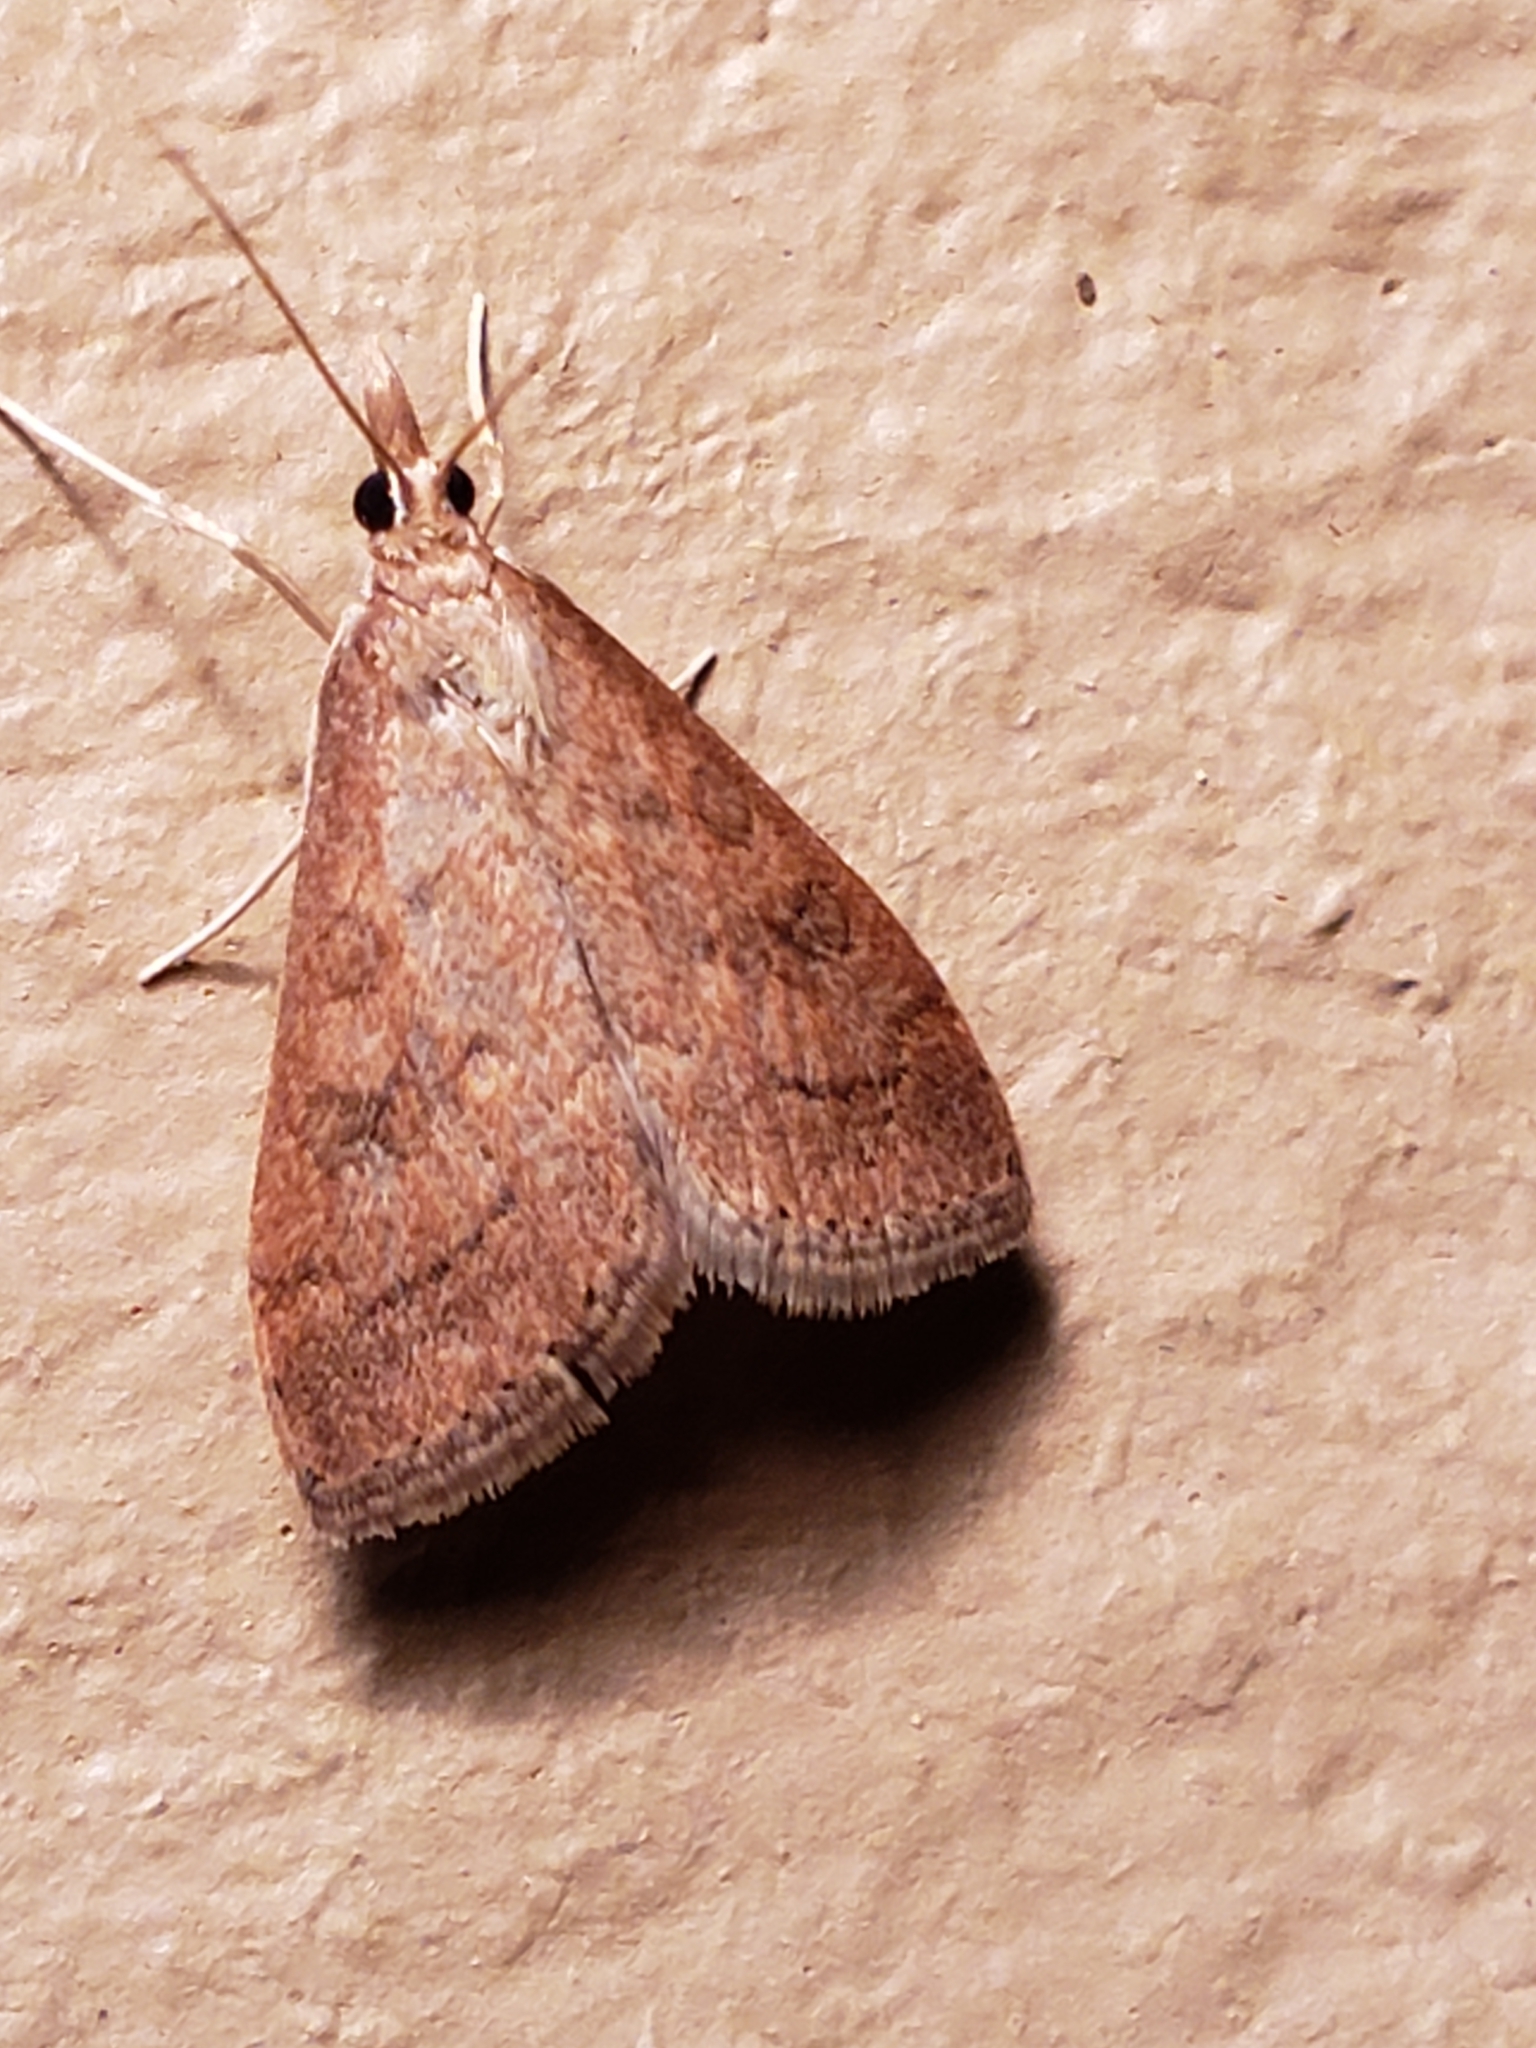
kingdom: Animalia
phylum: Arthropoda
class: Insecta
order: Lepidoptera
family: Crambidae
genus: Udea
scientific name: Udea rubigalis
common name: Celery leaftier moth
